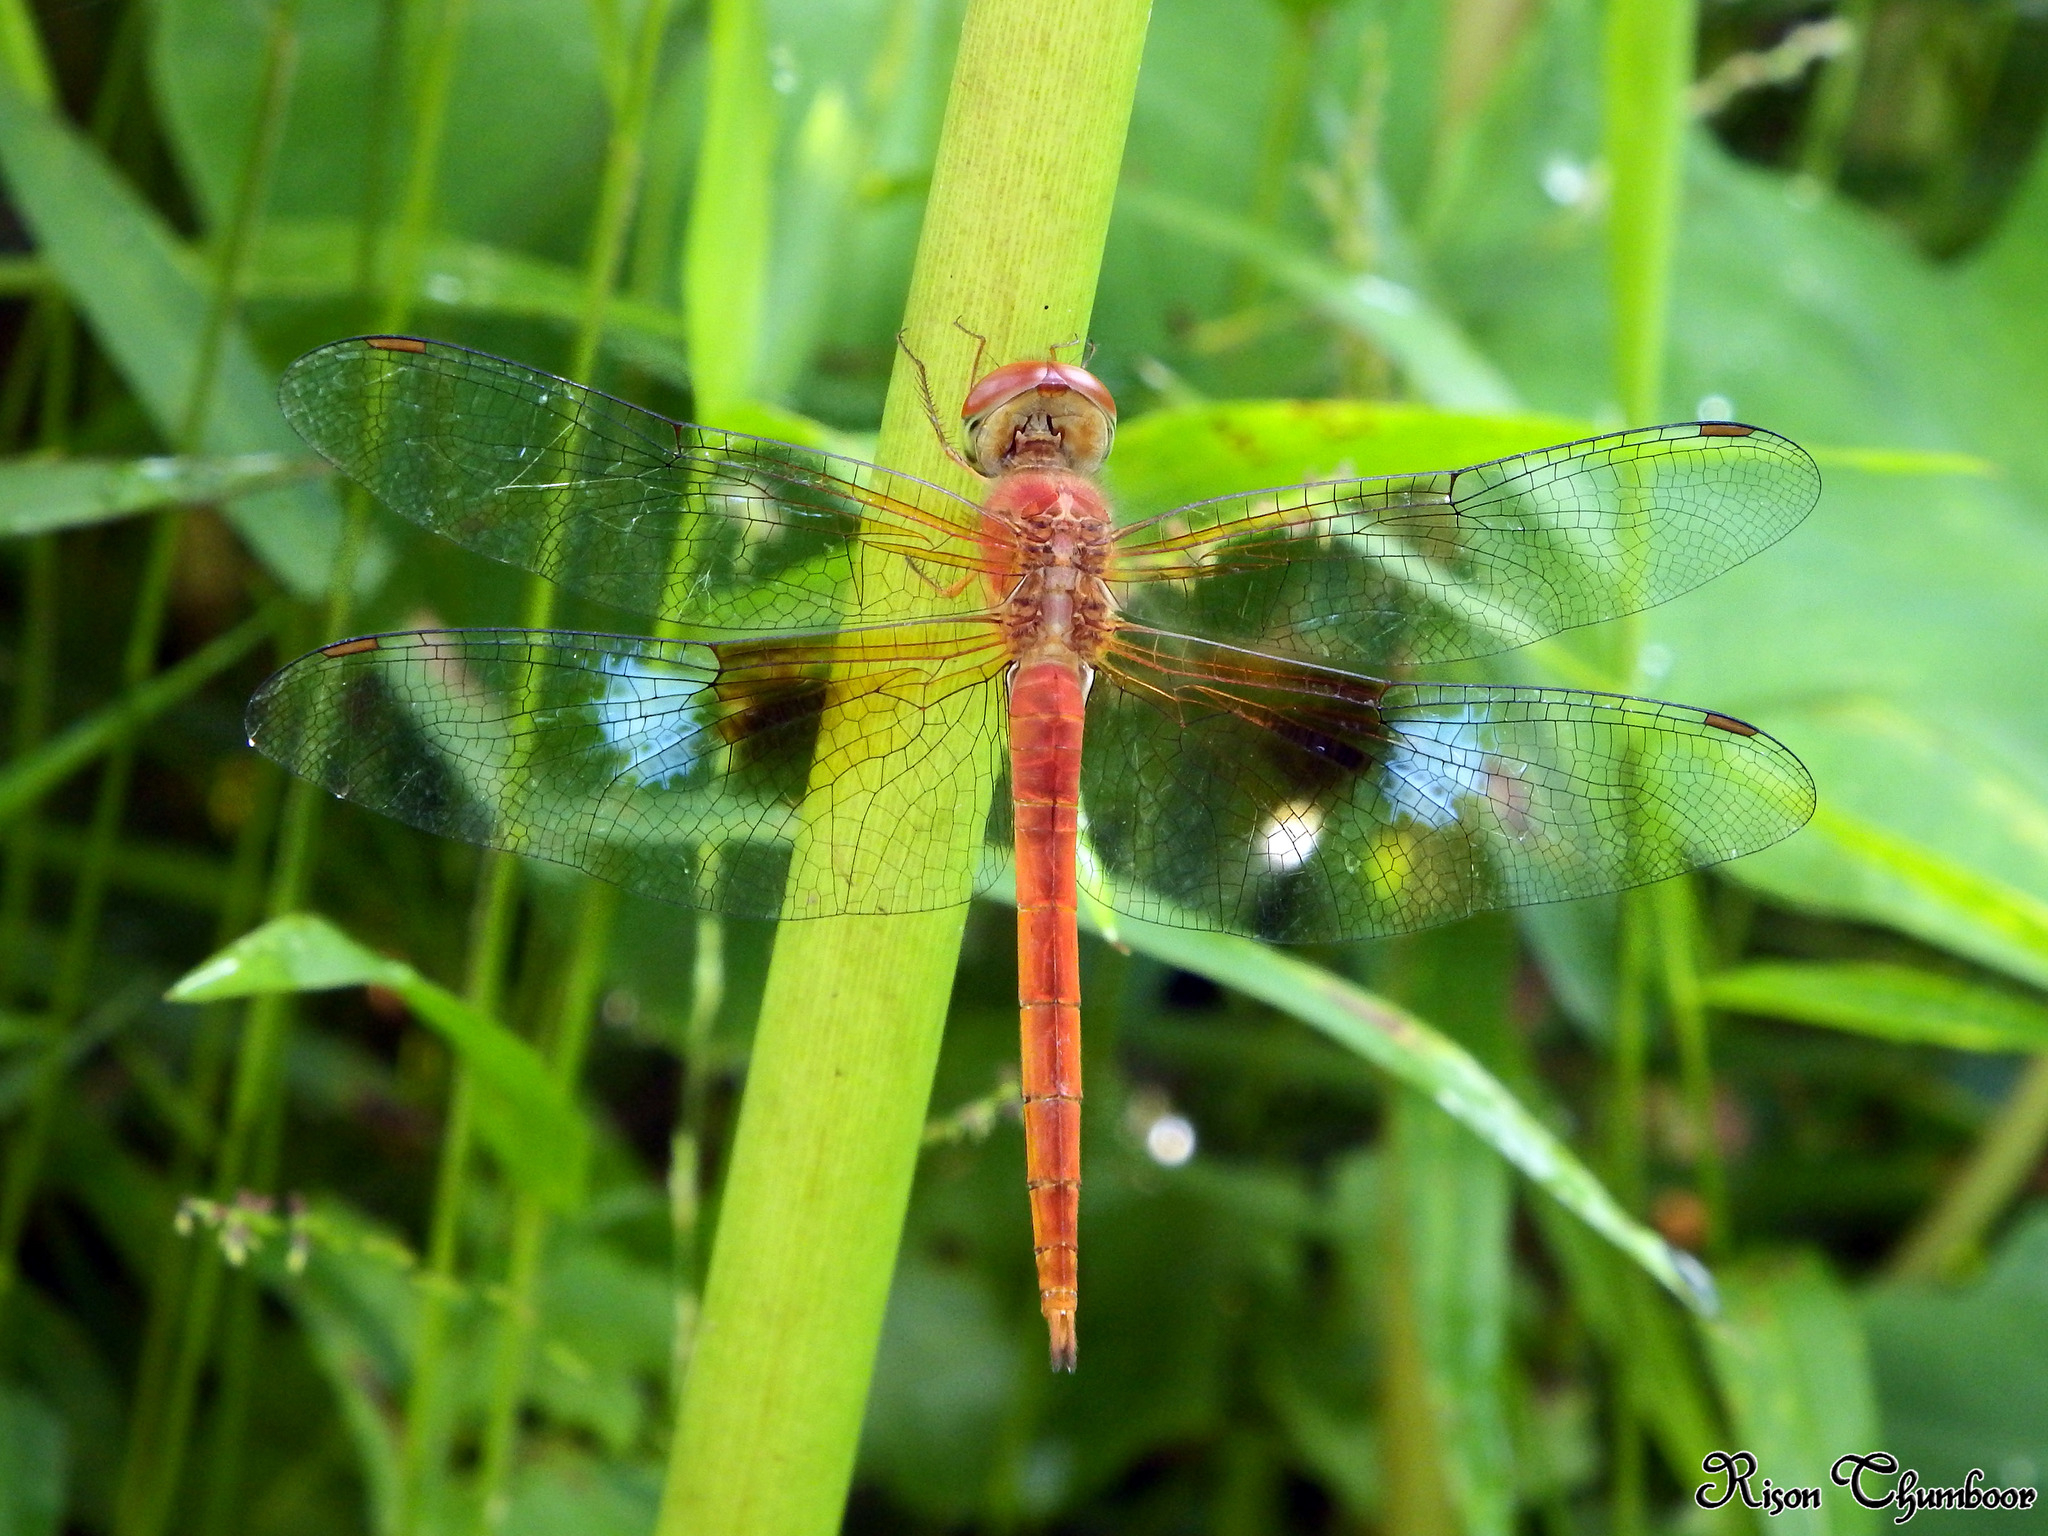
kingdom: Animalia
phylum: Arthropoda
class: Insecta
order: Odonata
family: Libellulidae
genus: Tholymis
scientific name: Tholymis tillarga
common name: Coral-tailed cloud wing
